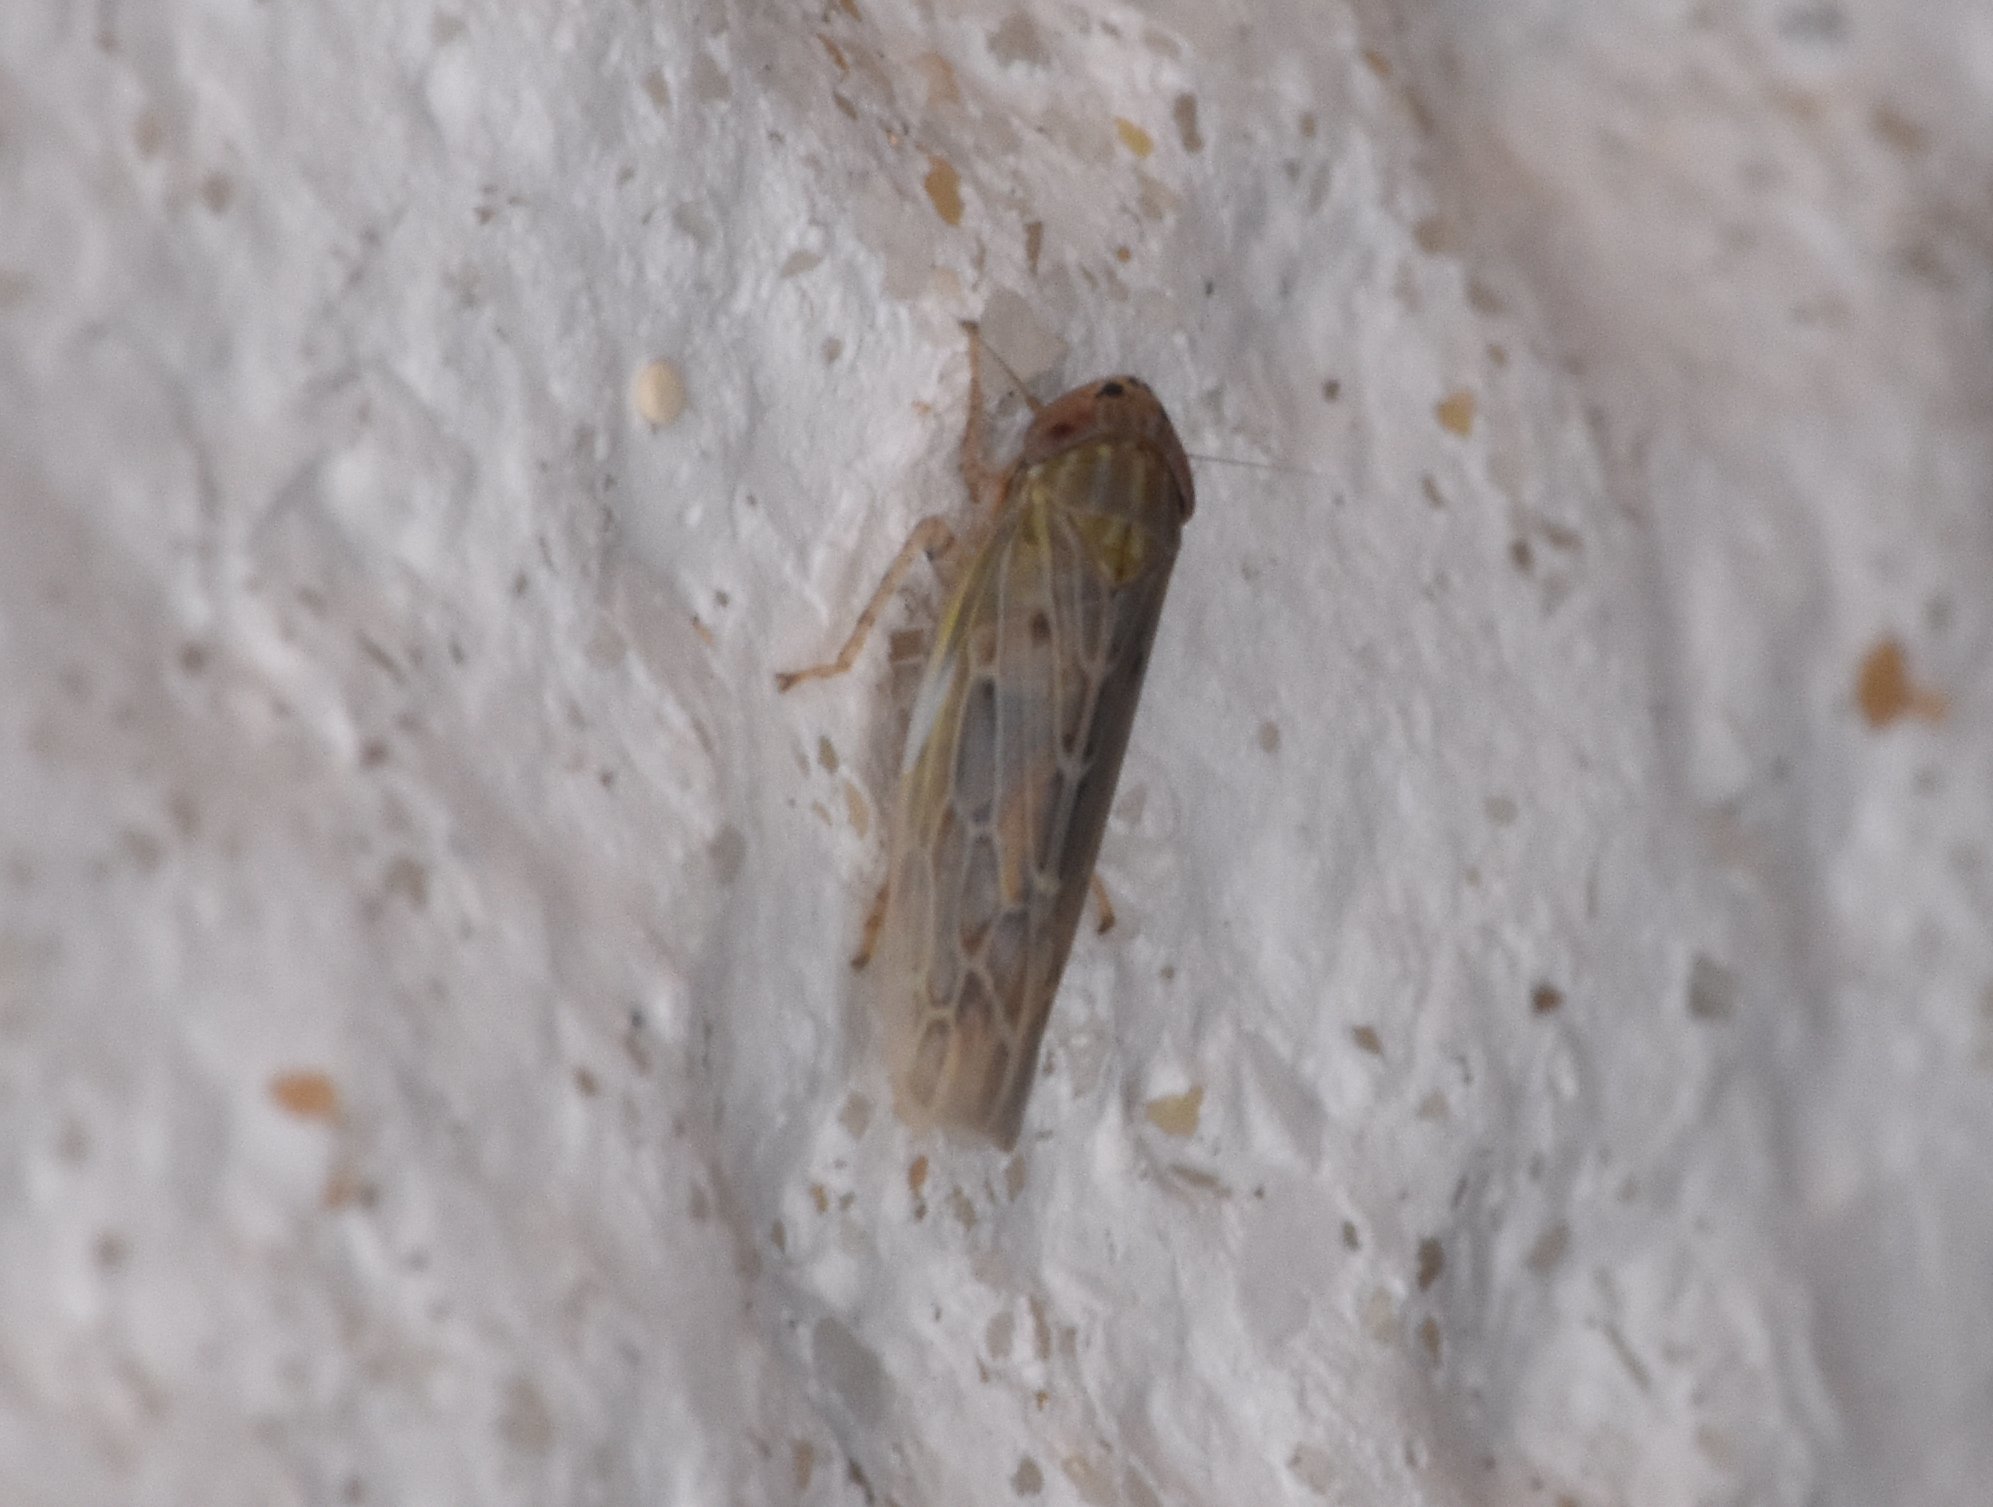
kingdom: Animalia
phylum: Arthropoda
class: Insecta
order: Hemiptera
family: Cicadellidae
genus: Graminella
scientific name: Graminella sonora
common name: Lesser lawn leafhopper
